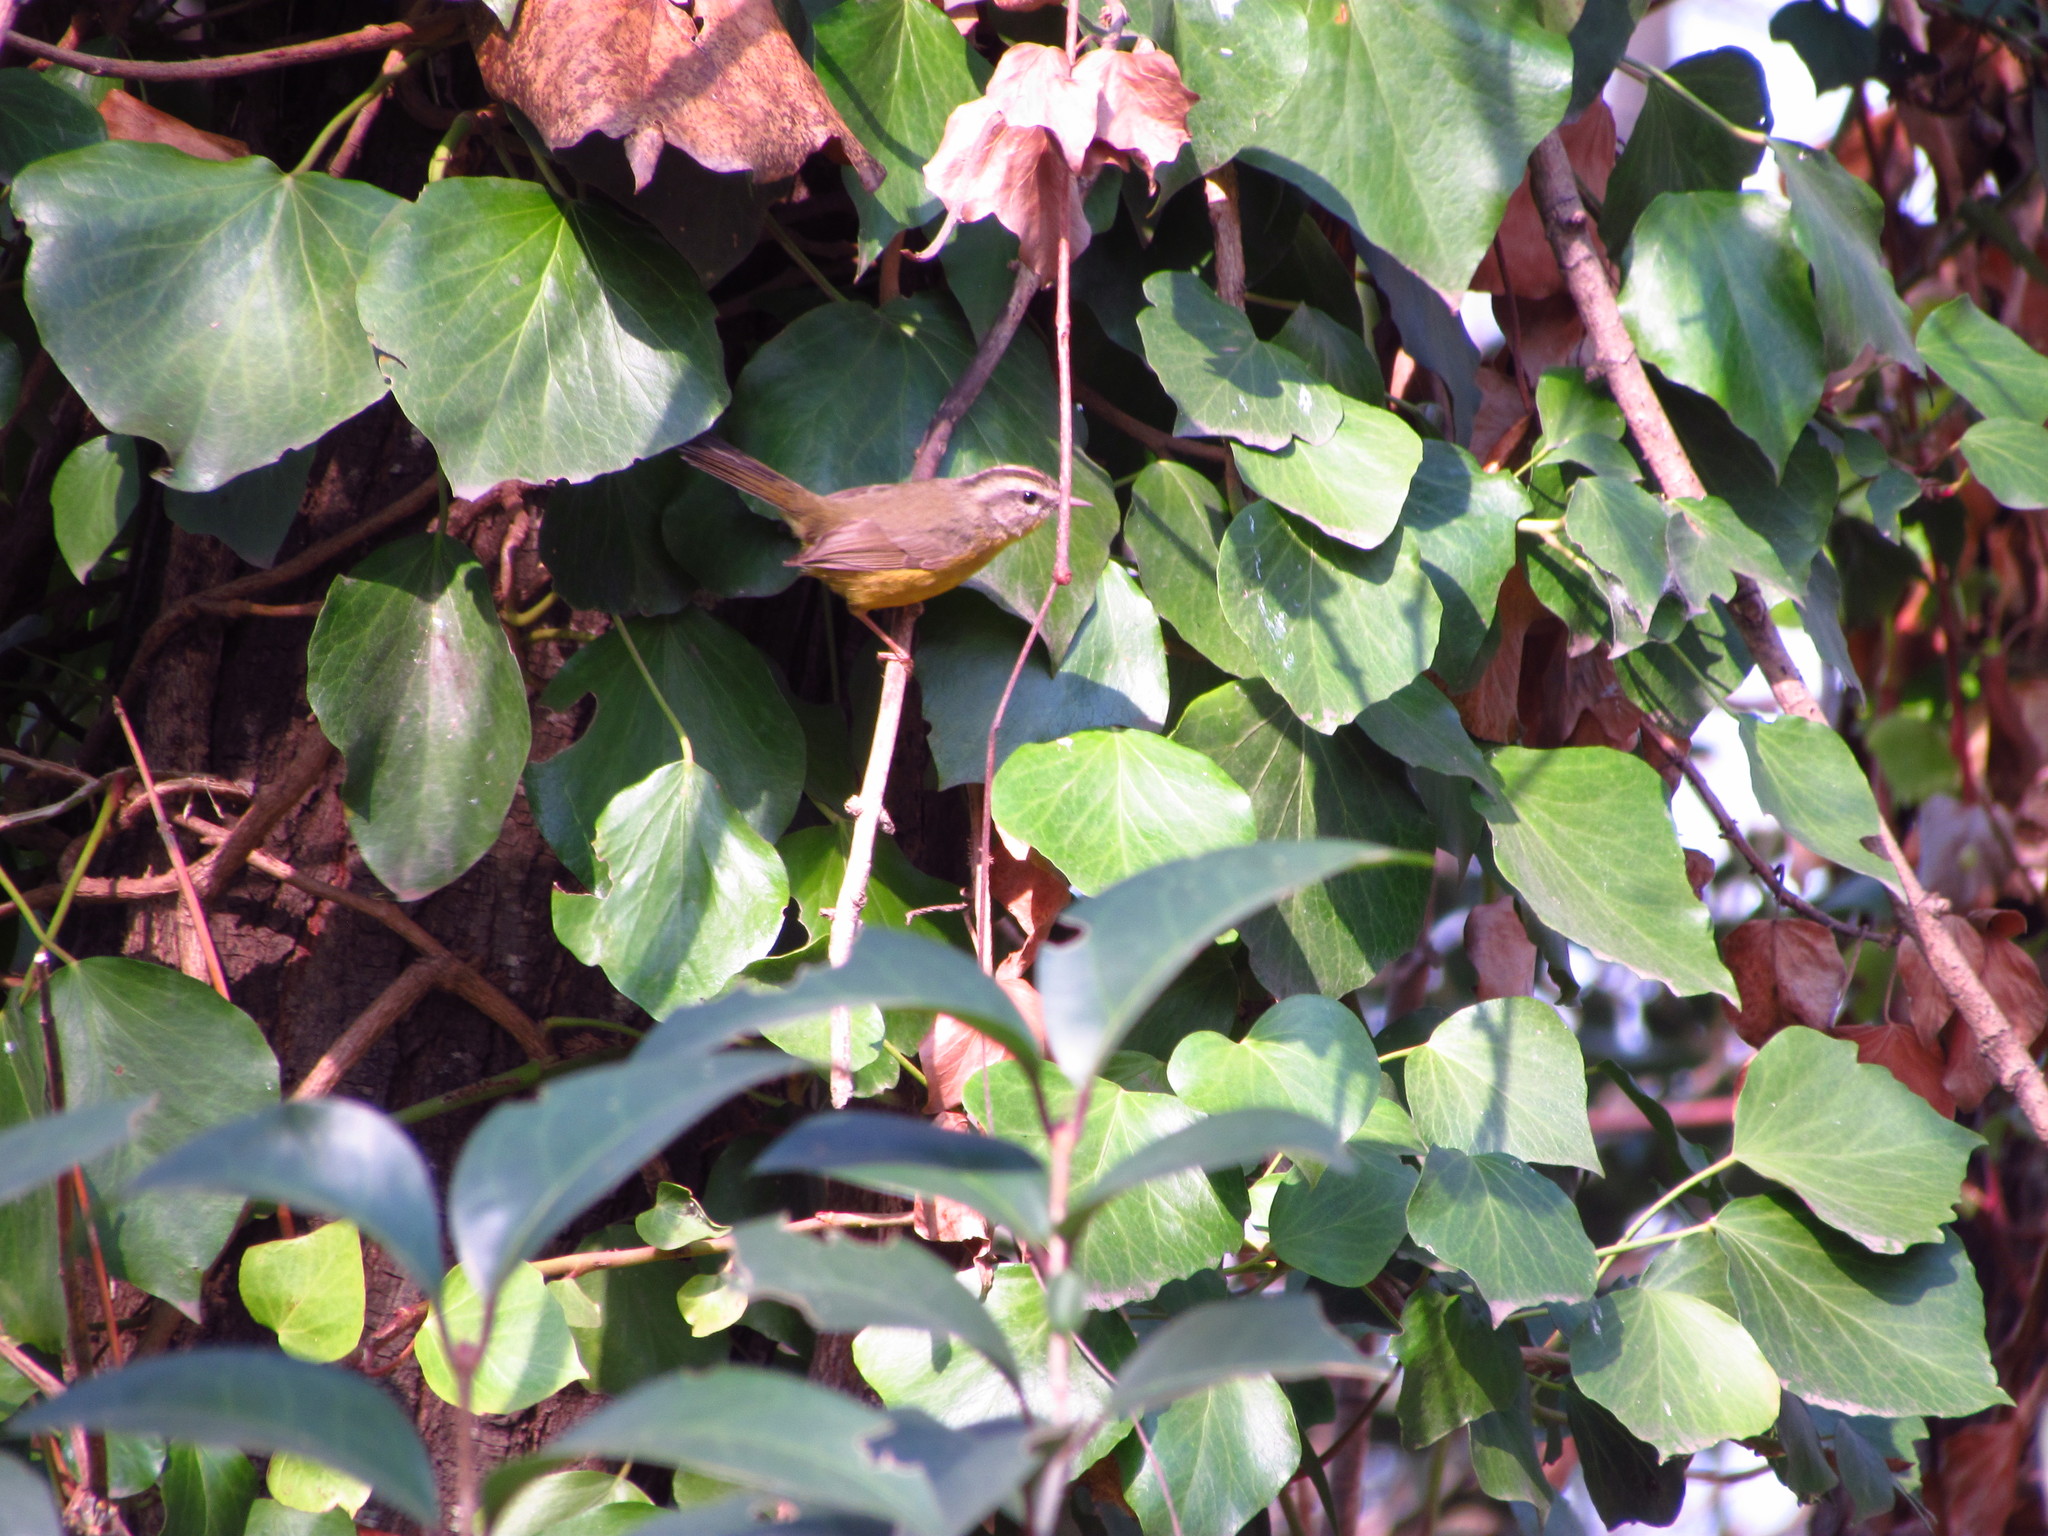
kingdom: Animalia
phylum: Chordata
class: Aves
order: Passeriformes
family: Parulidae
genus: Basileuterus
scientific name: Basileuterus culicivorus
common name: Golden-crowned warbler
